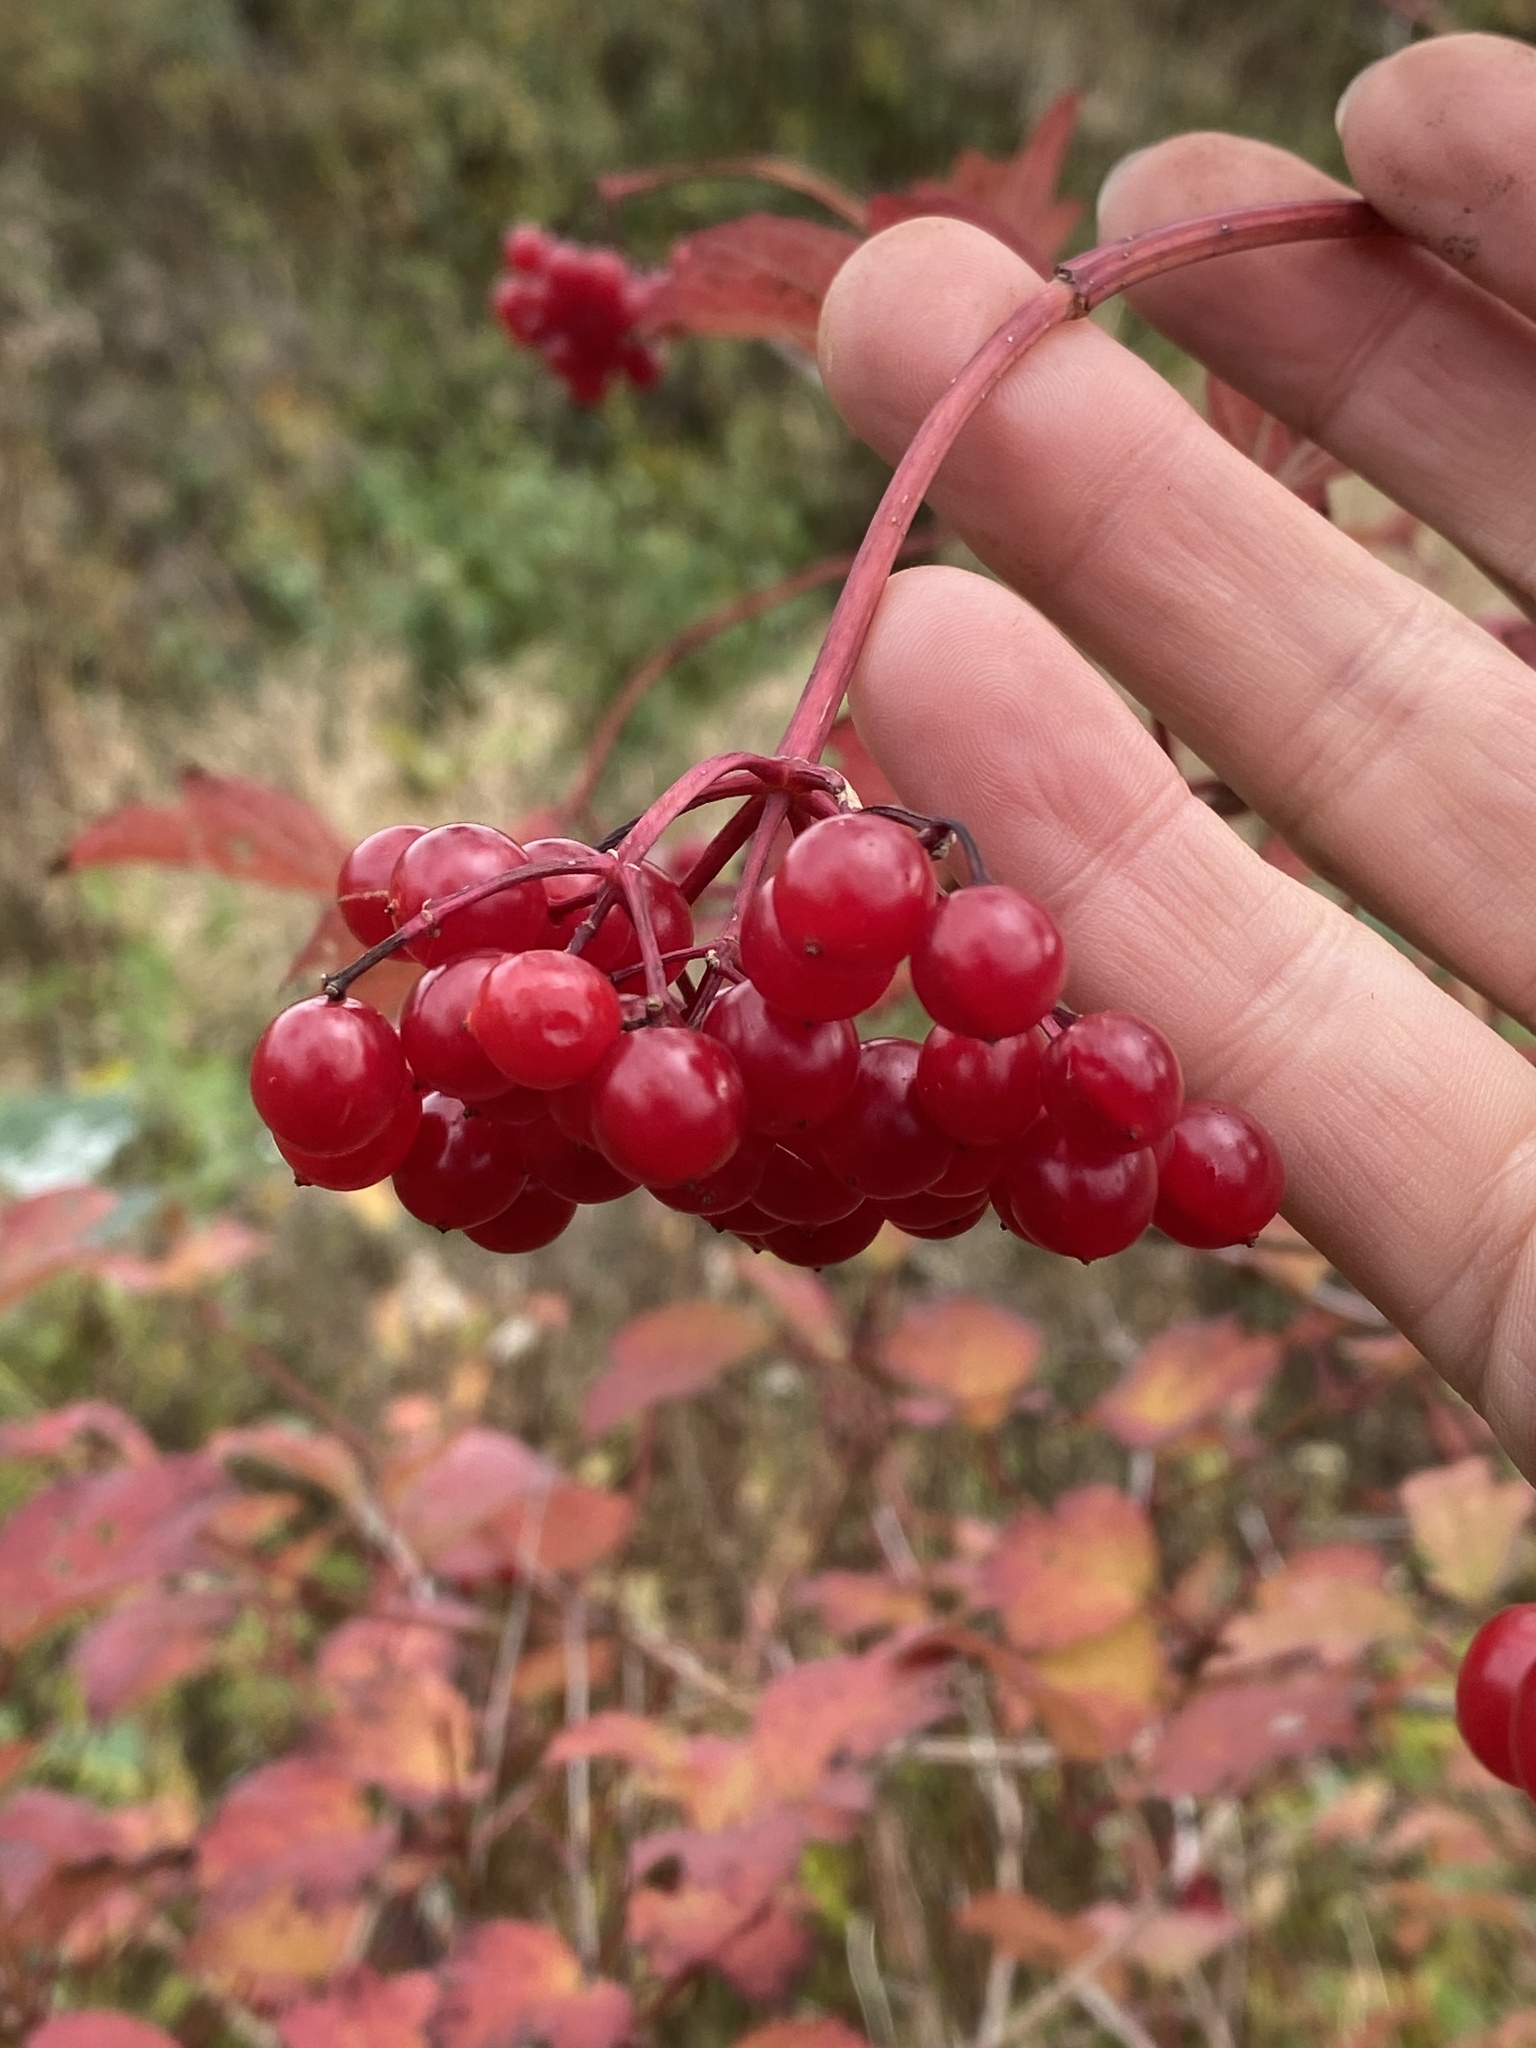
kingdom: Plantae
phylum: Tracheophyta
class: Magnoliopsida
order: Dipsacales
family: Viburnaceae
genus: Viburnum
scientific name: Viburnum opulus
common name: Guelder-rose
